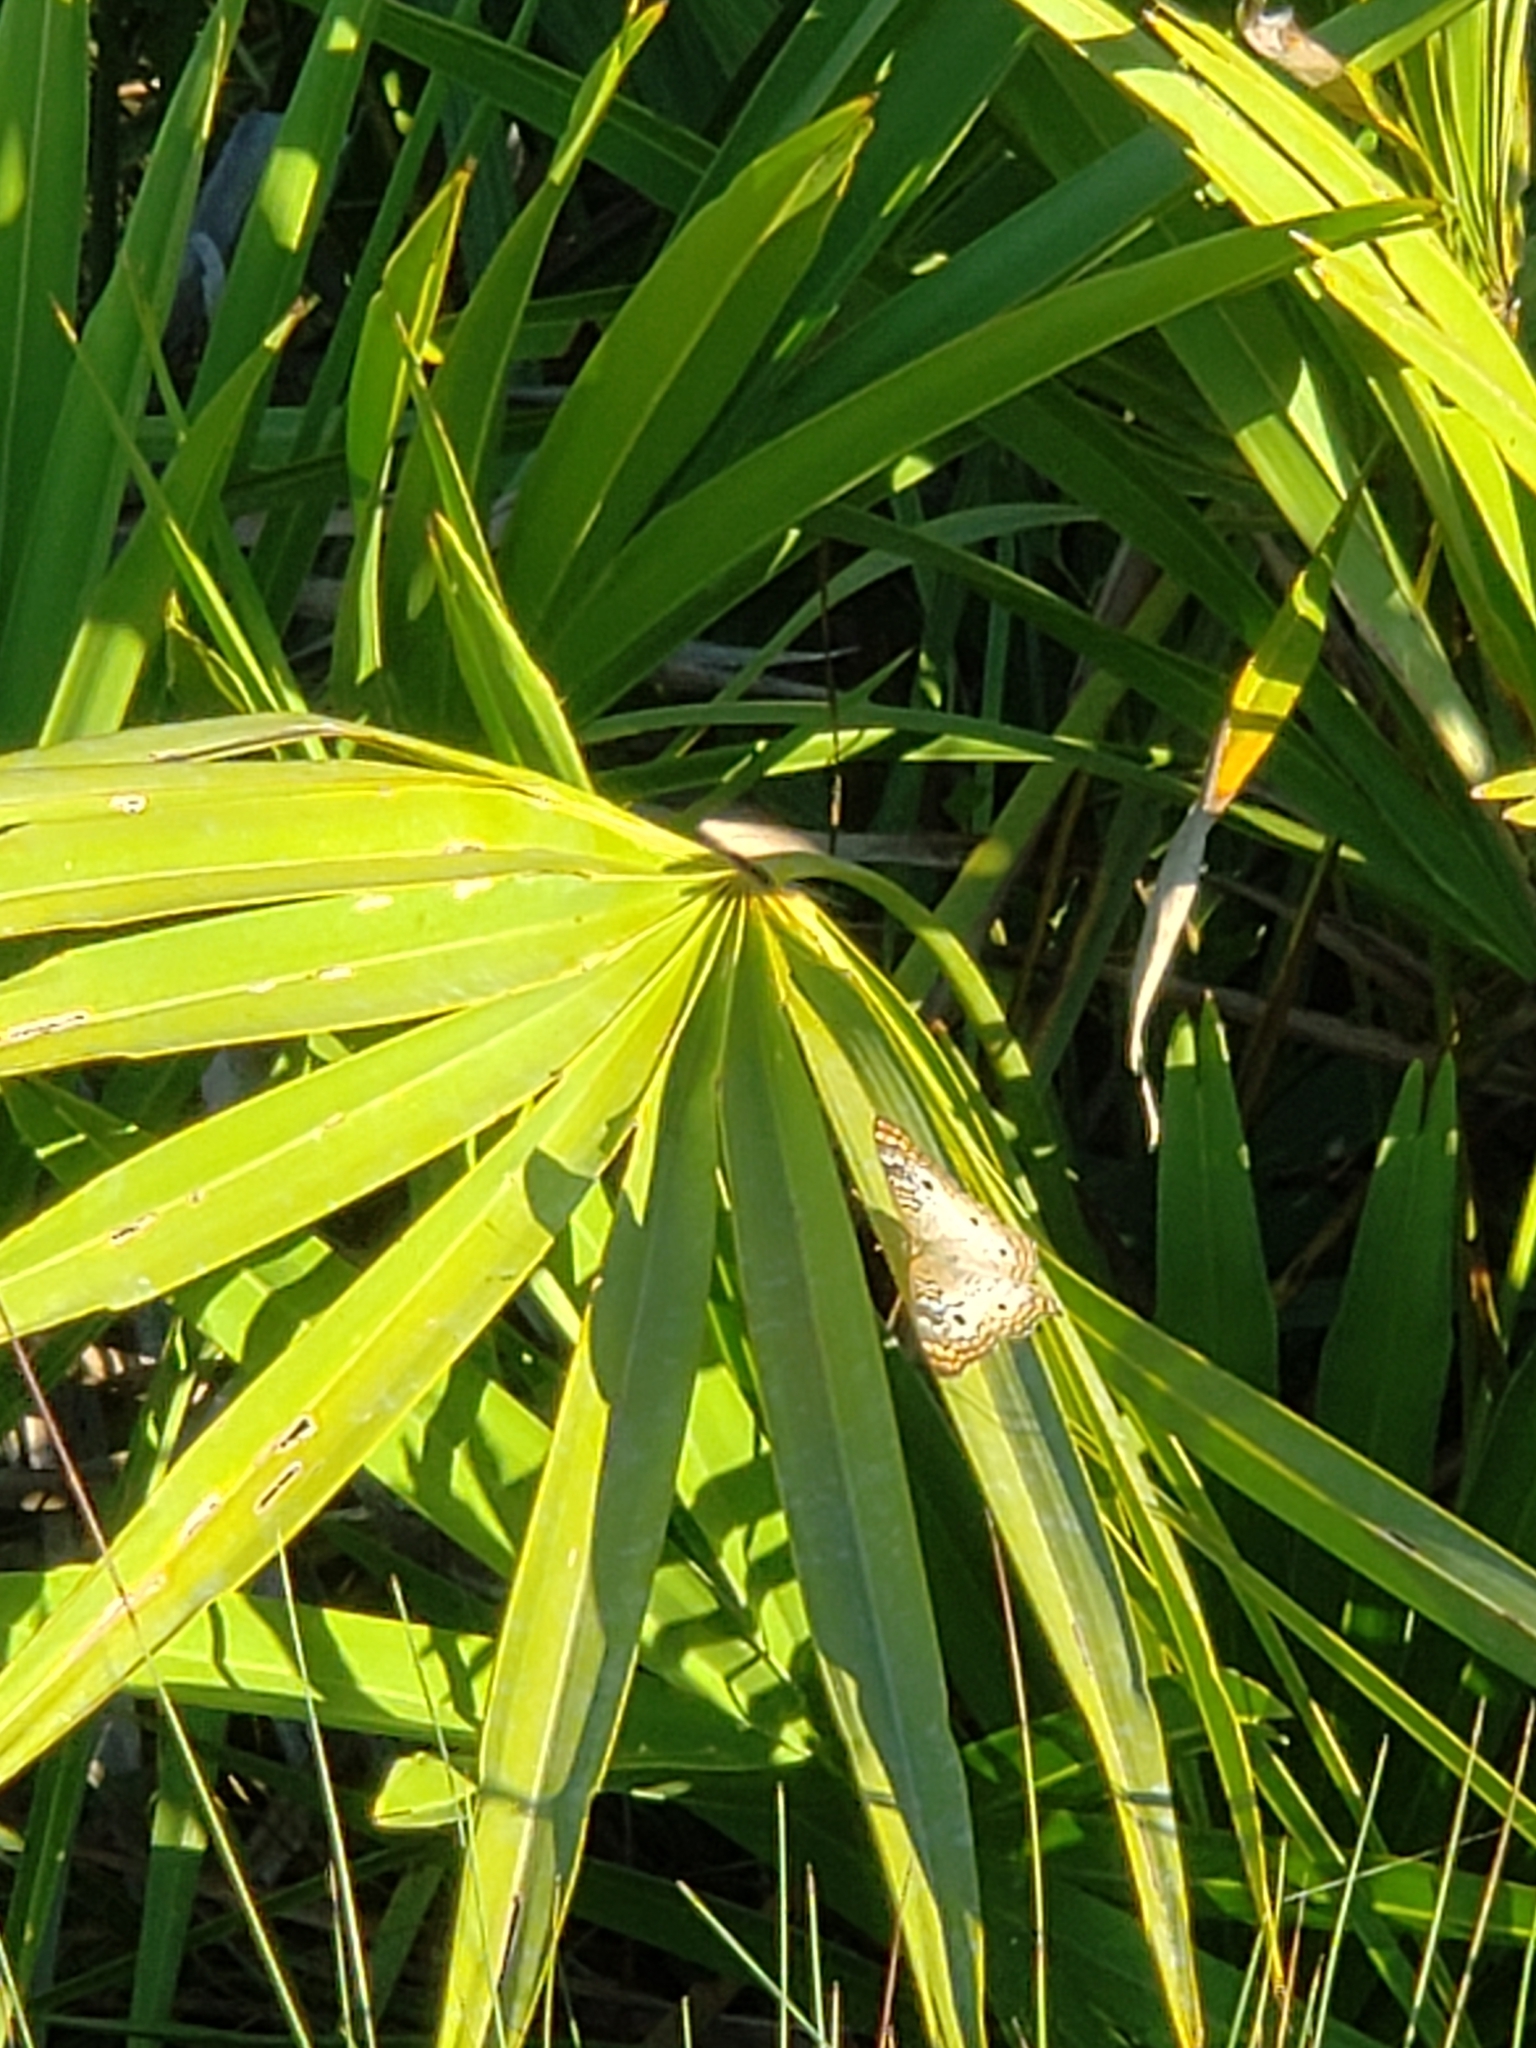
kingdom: Animalia
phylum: Arthropoda
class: Insecta
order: Lepidoptera
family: Nymphalidae
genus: Anartia
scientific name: Anartia jatrophae
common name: White peacock
